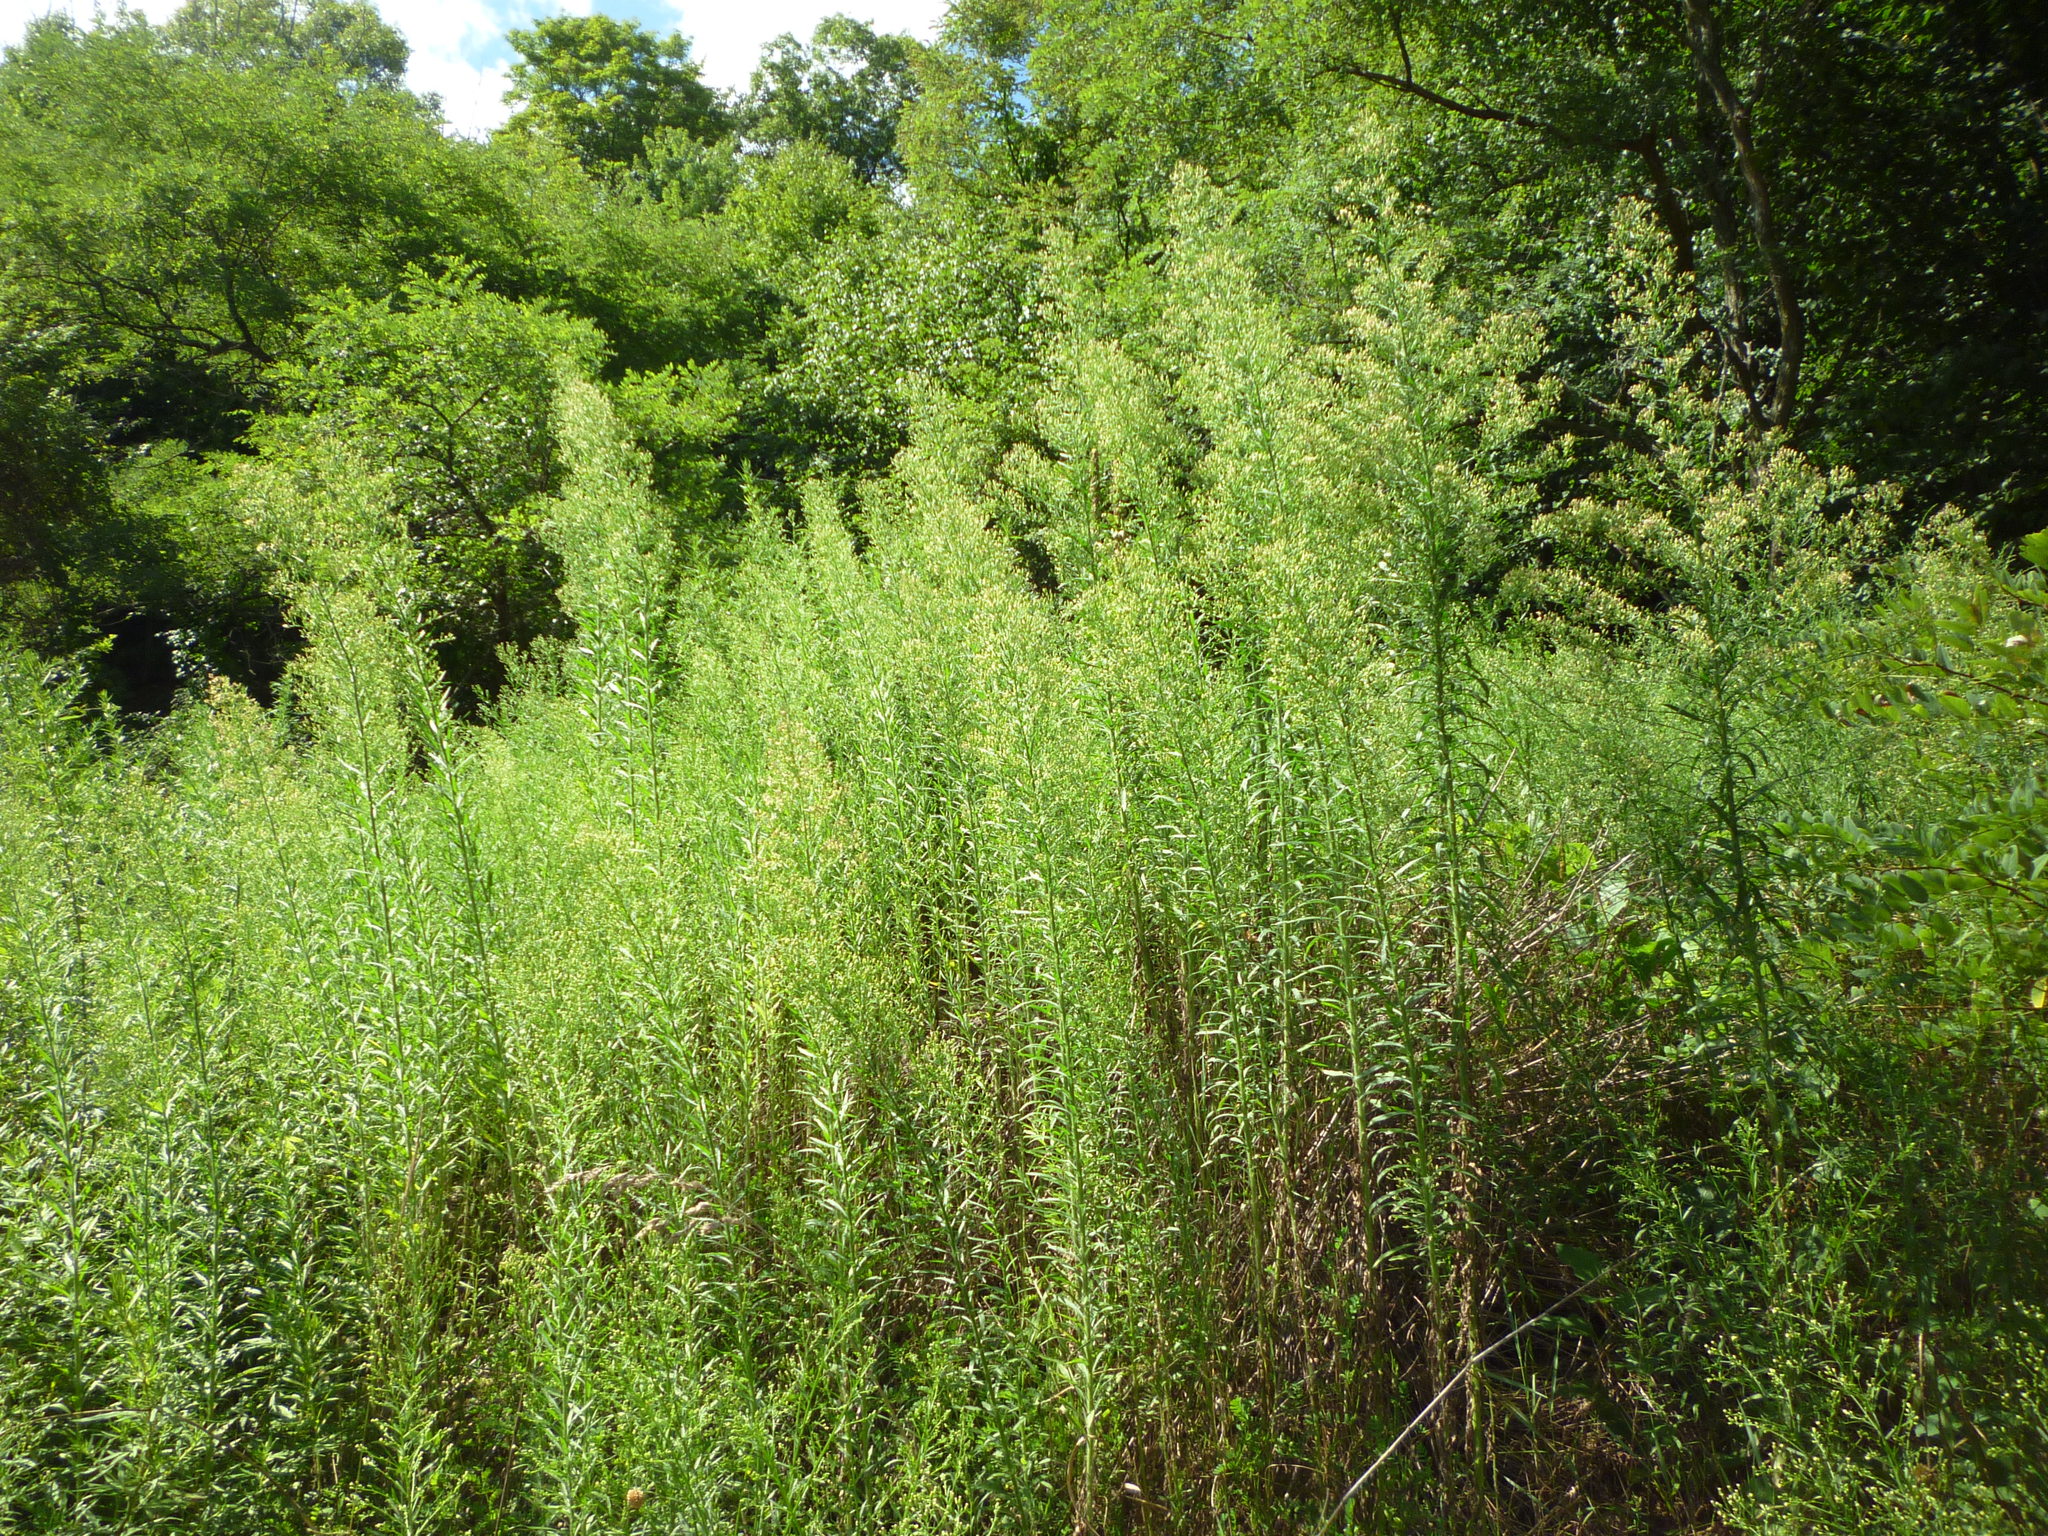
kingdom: Plantae
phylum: Tracheophyta
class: Magnoliopsida
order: Asterales
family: Asteraceae
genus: Erigeron
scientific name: Erigeron canadensis
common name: Canadian fleabane
